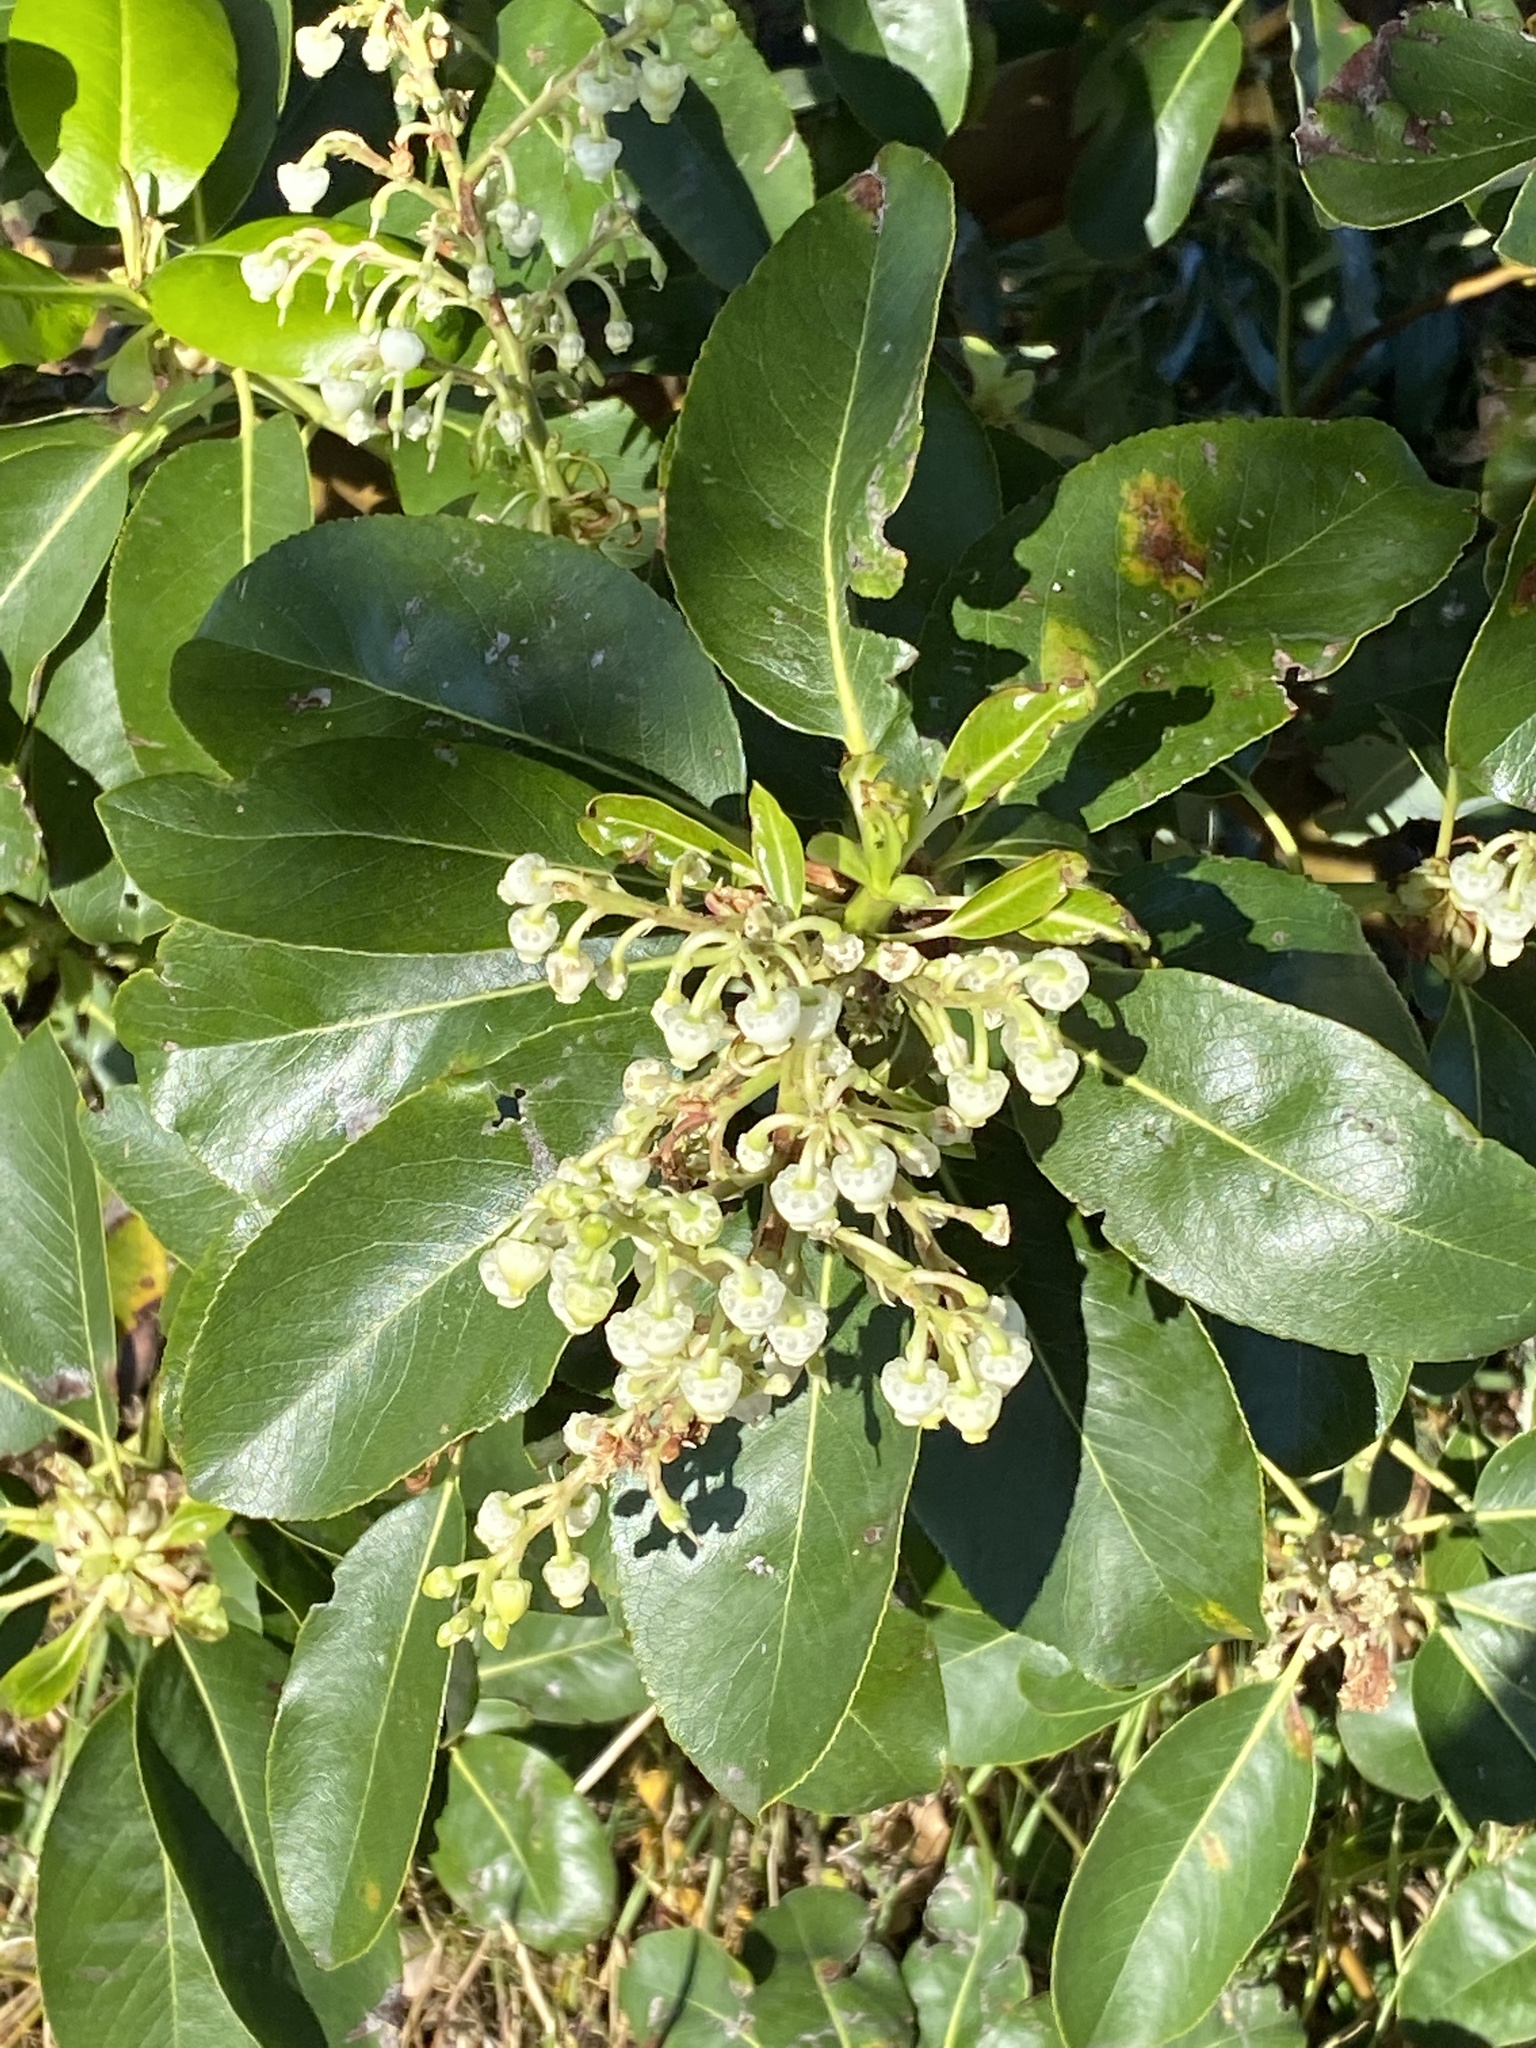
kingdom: Plantae
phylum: Tracheophyta
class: Magnoliopsida
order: Ericales
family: Ericaceae
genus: Arbutus
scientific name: Arbutus menziesii
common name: Pacific madrone
